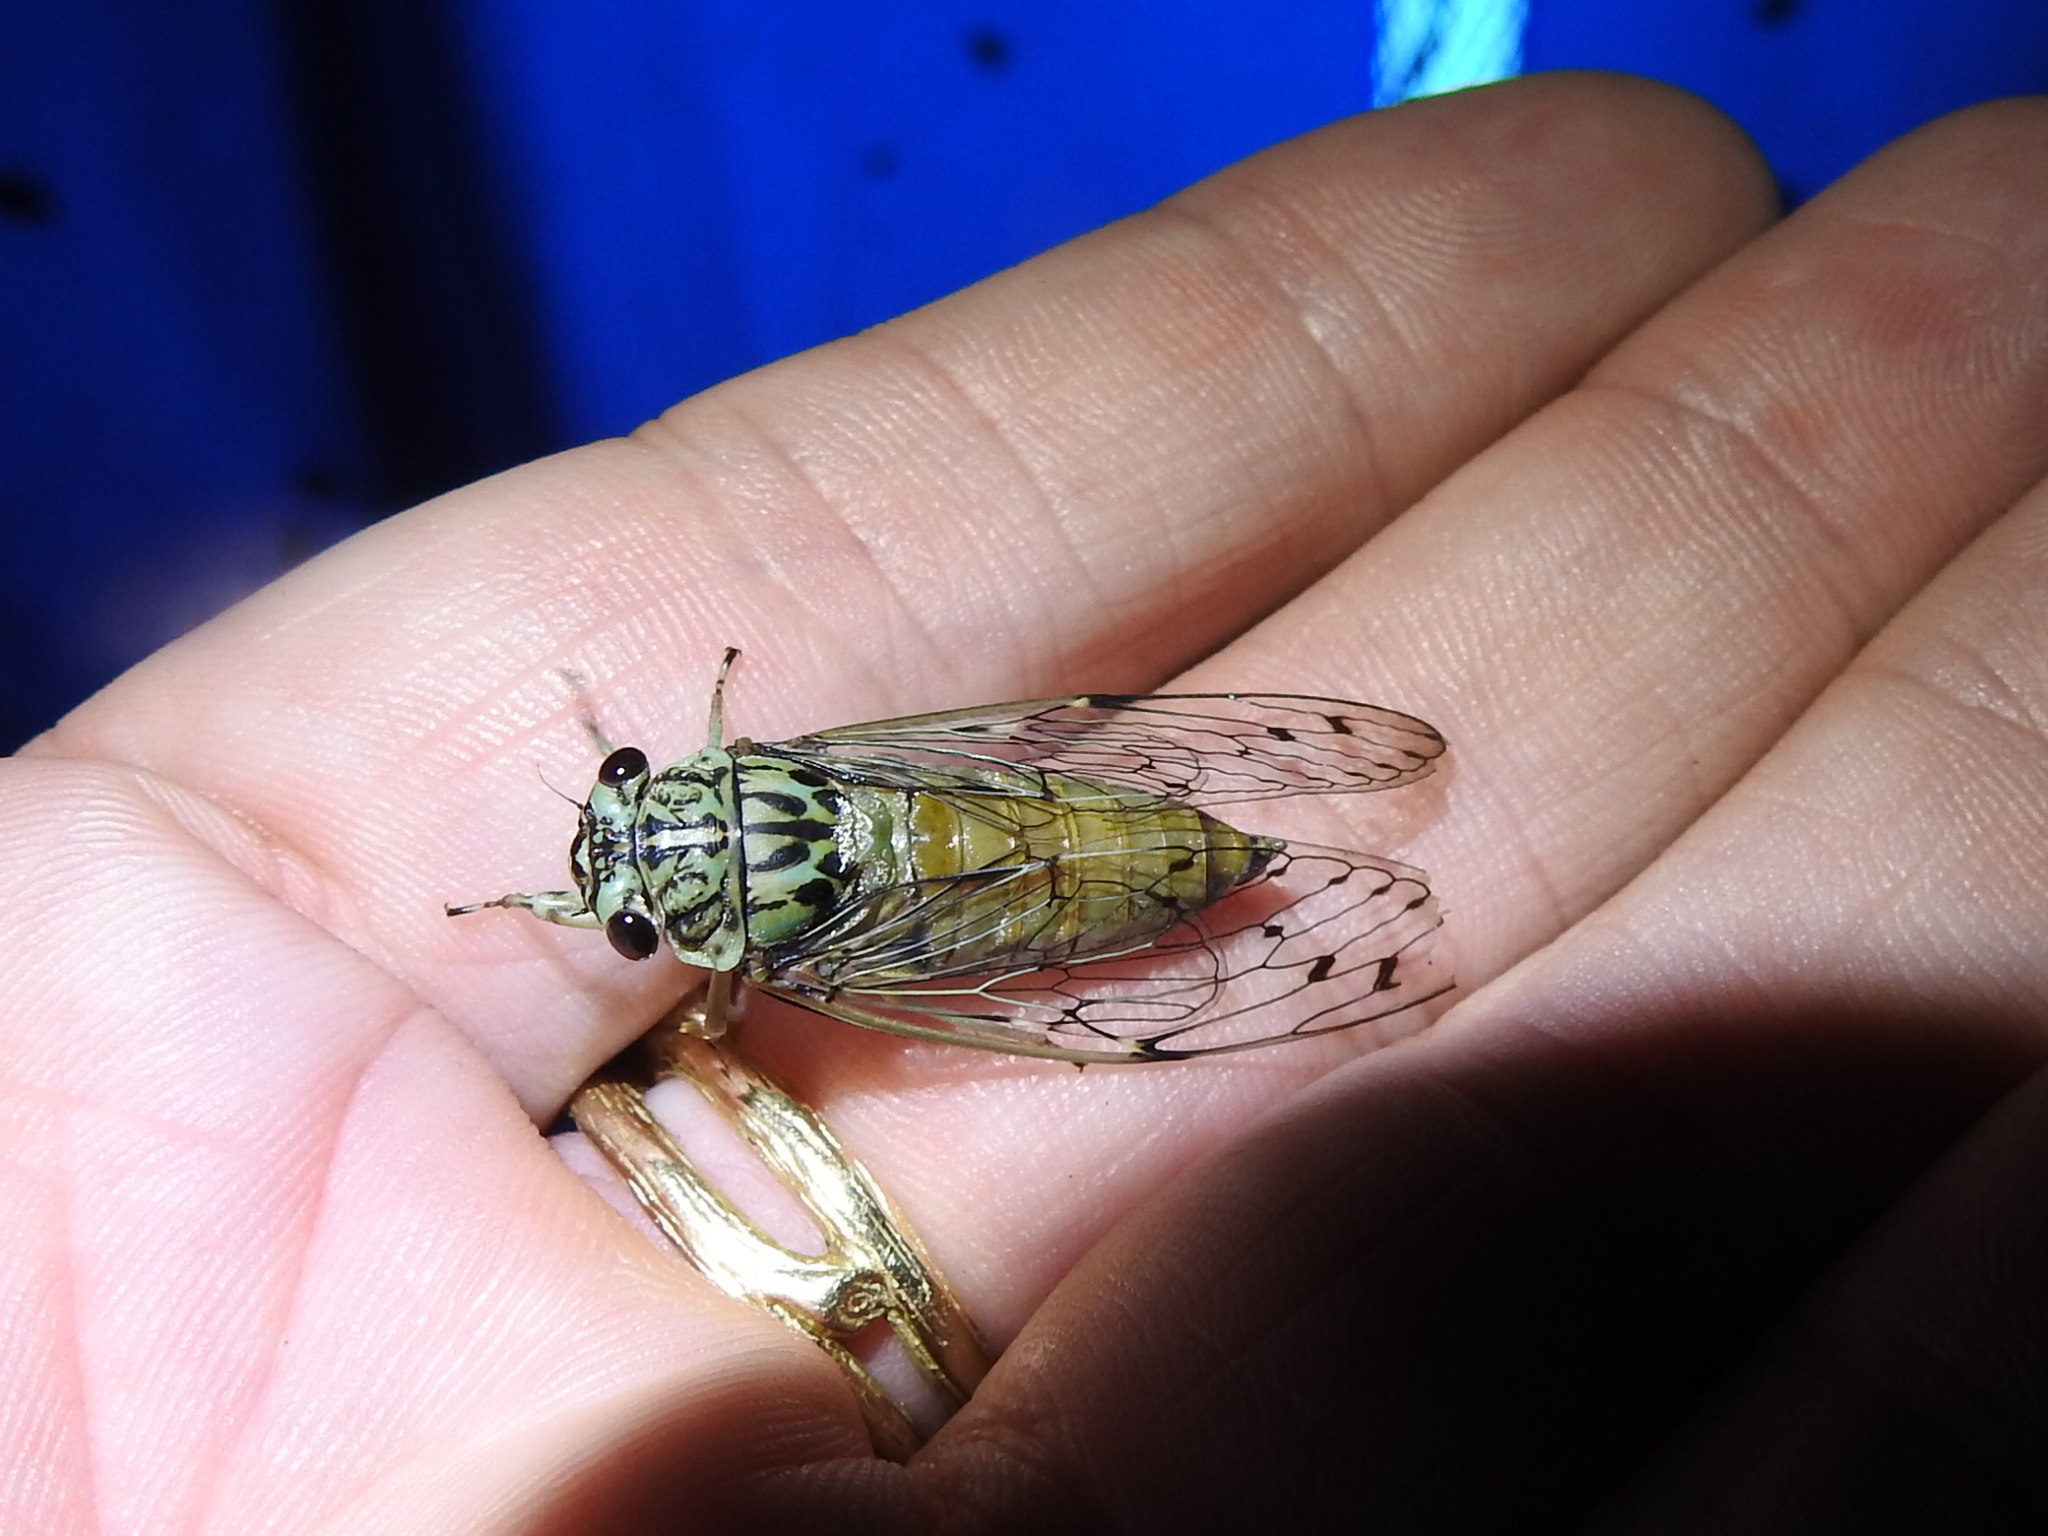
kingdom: Animalia
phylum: Arthropoda
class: Insecta
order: Hemiptera
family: Cicadidae
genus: Neocicada
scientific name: Neocicada hieroglyphica
